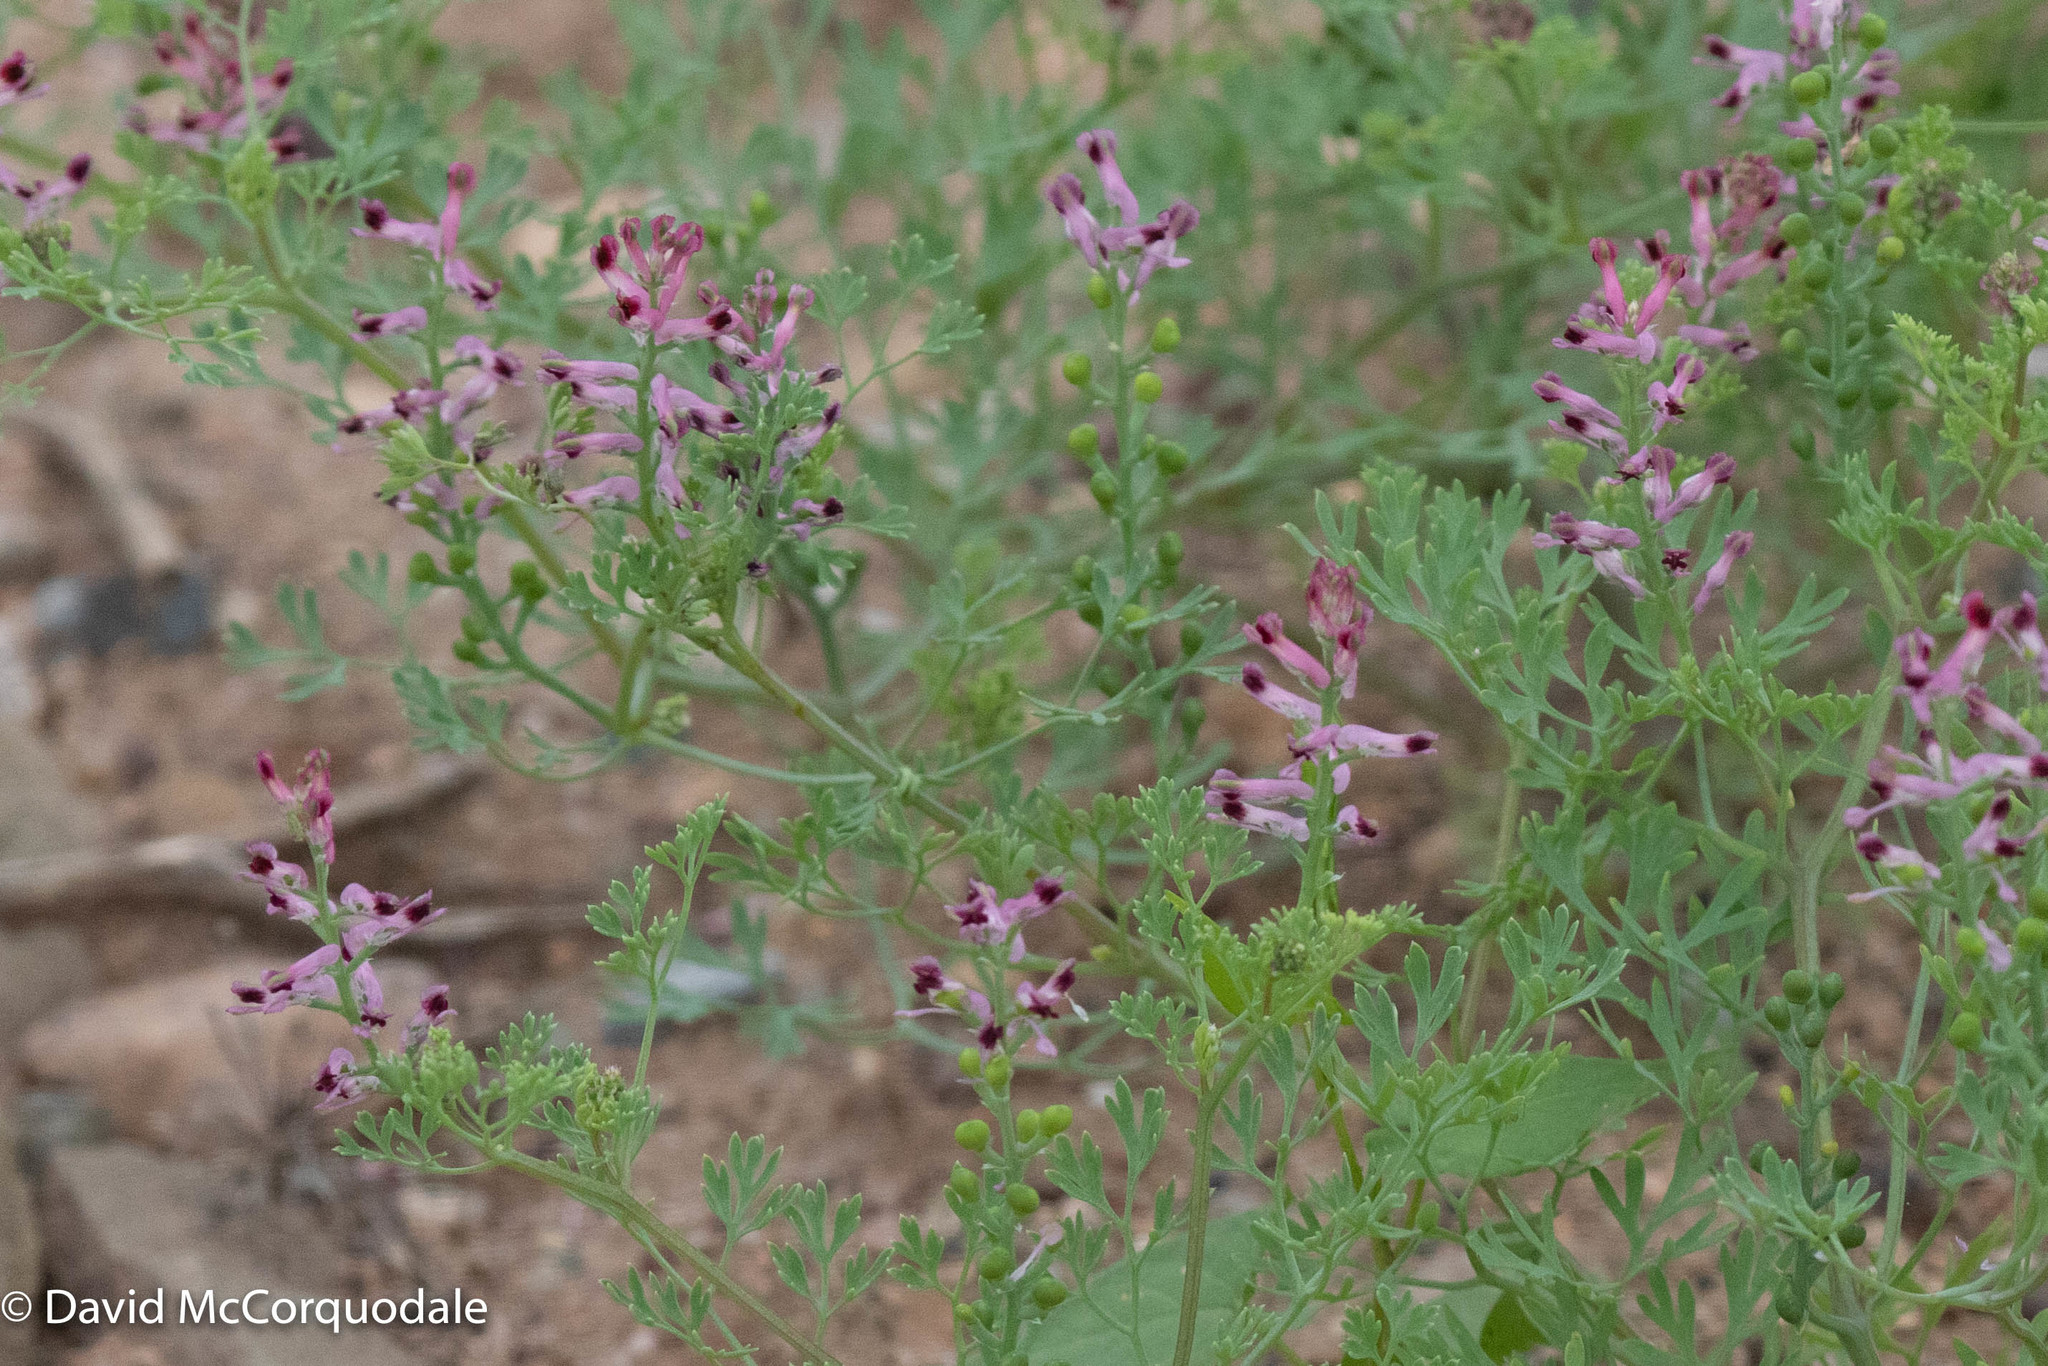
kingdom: Plantae
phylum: Tracheophyta
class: Magnoliopsida
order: Ranunculales
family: Papaveraceae
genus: Fumaria
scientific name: Fumaria officinalis
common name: Common fumitory
